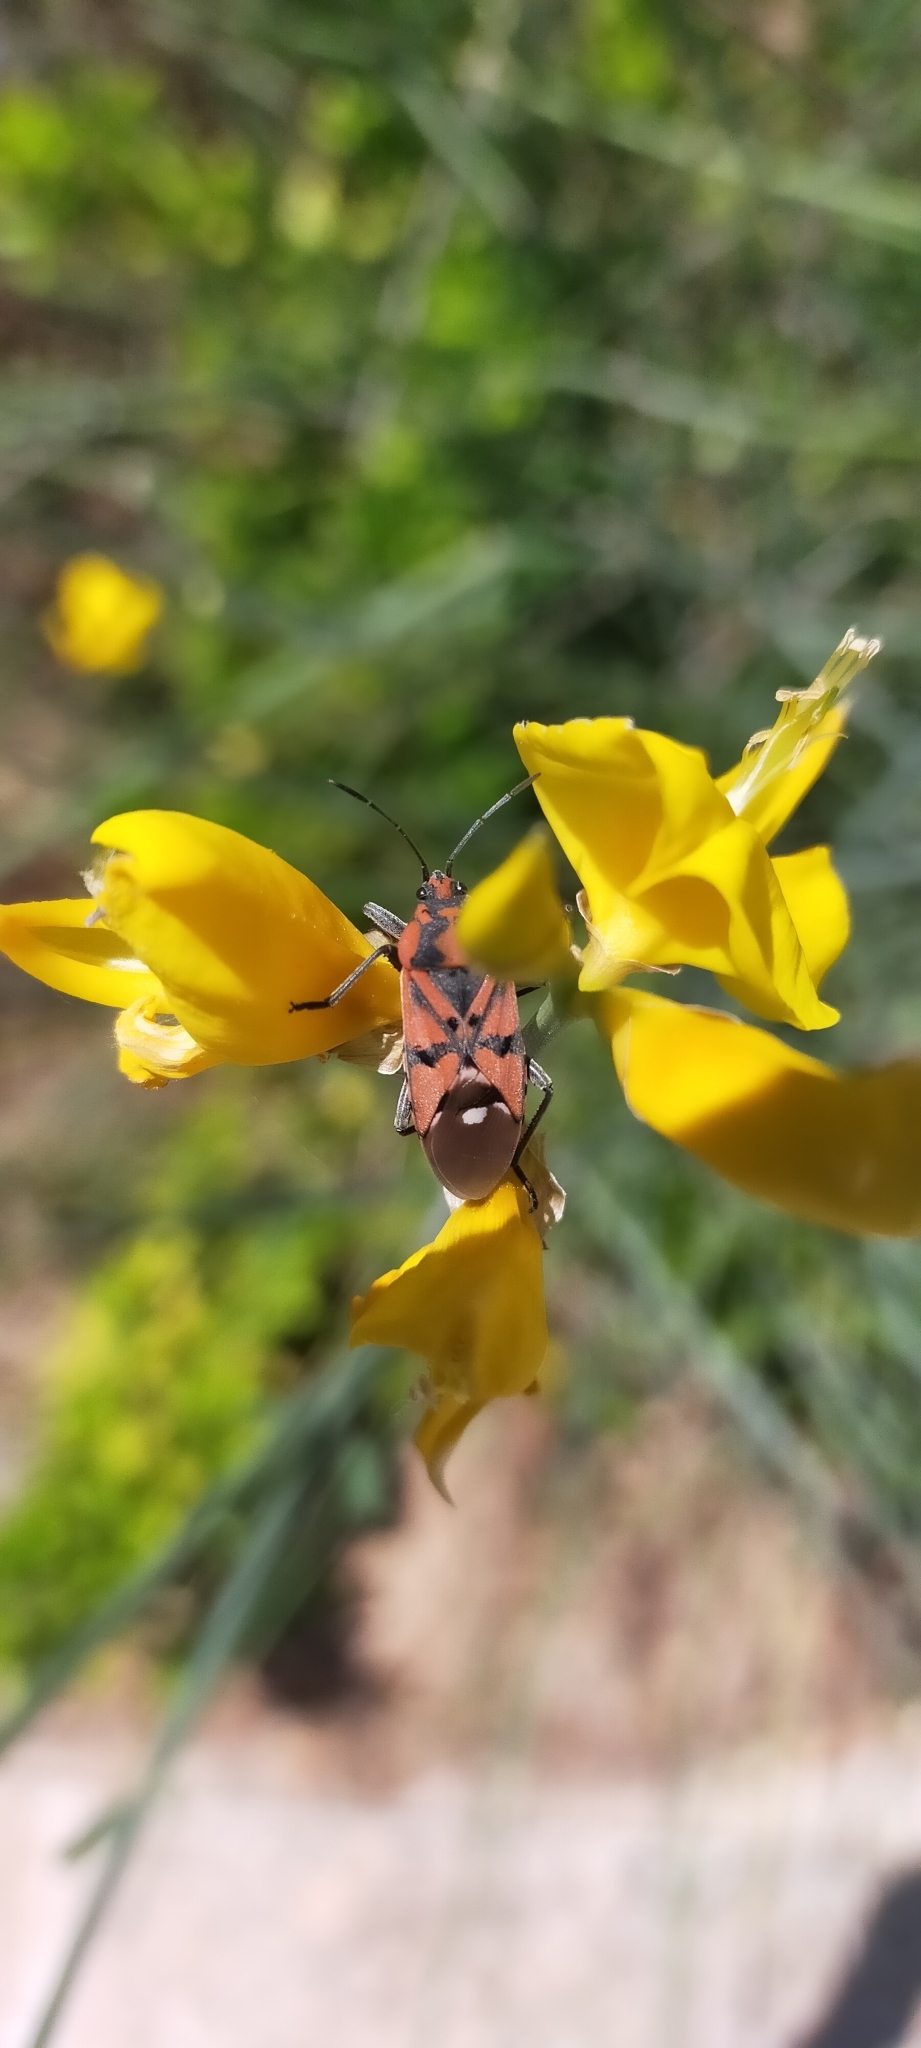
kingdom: Animalia
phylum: Arthropoda
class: Insecta
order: Hemiptera
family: Lygaeidae
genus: Spilostethus
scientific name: Spilostethus pandurus
